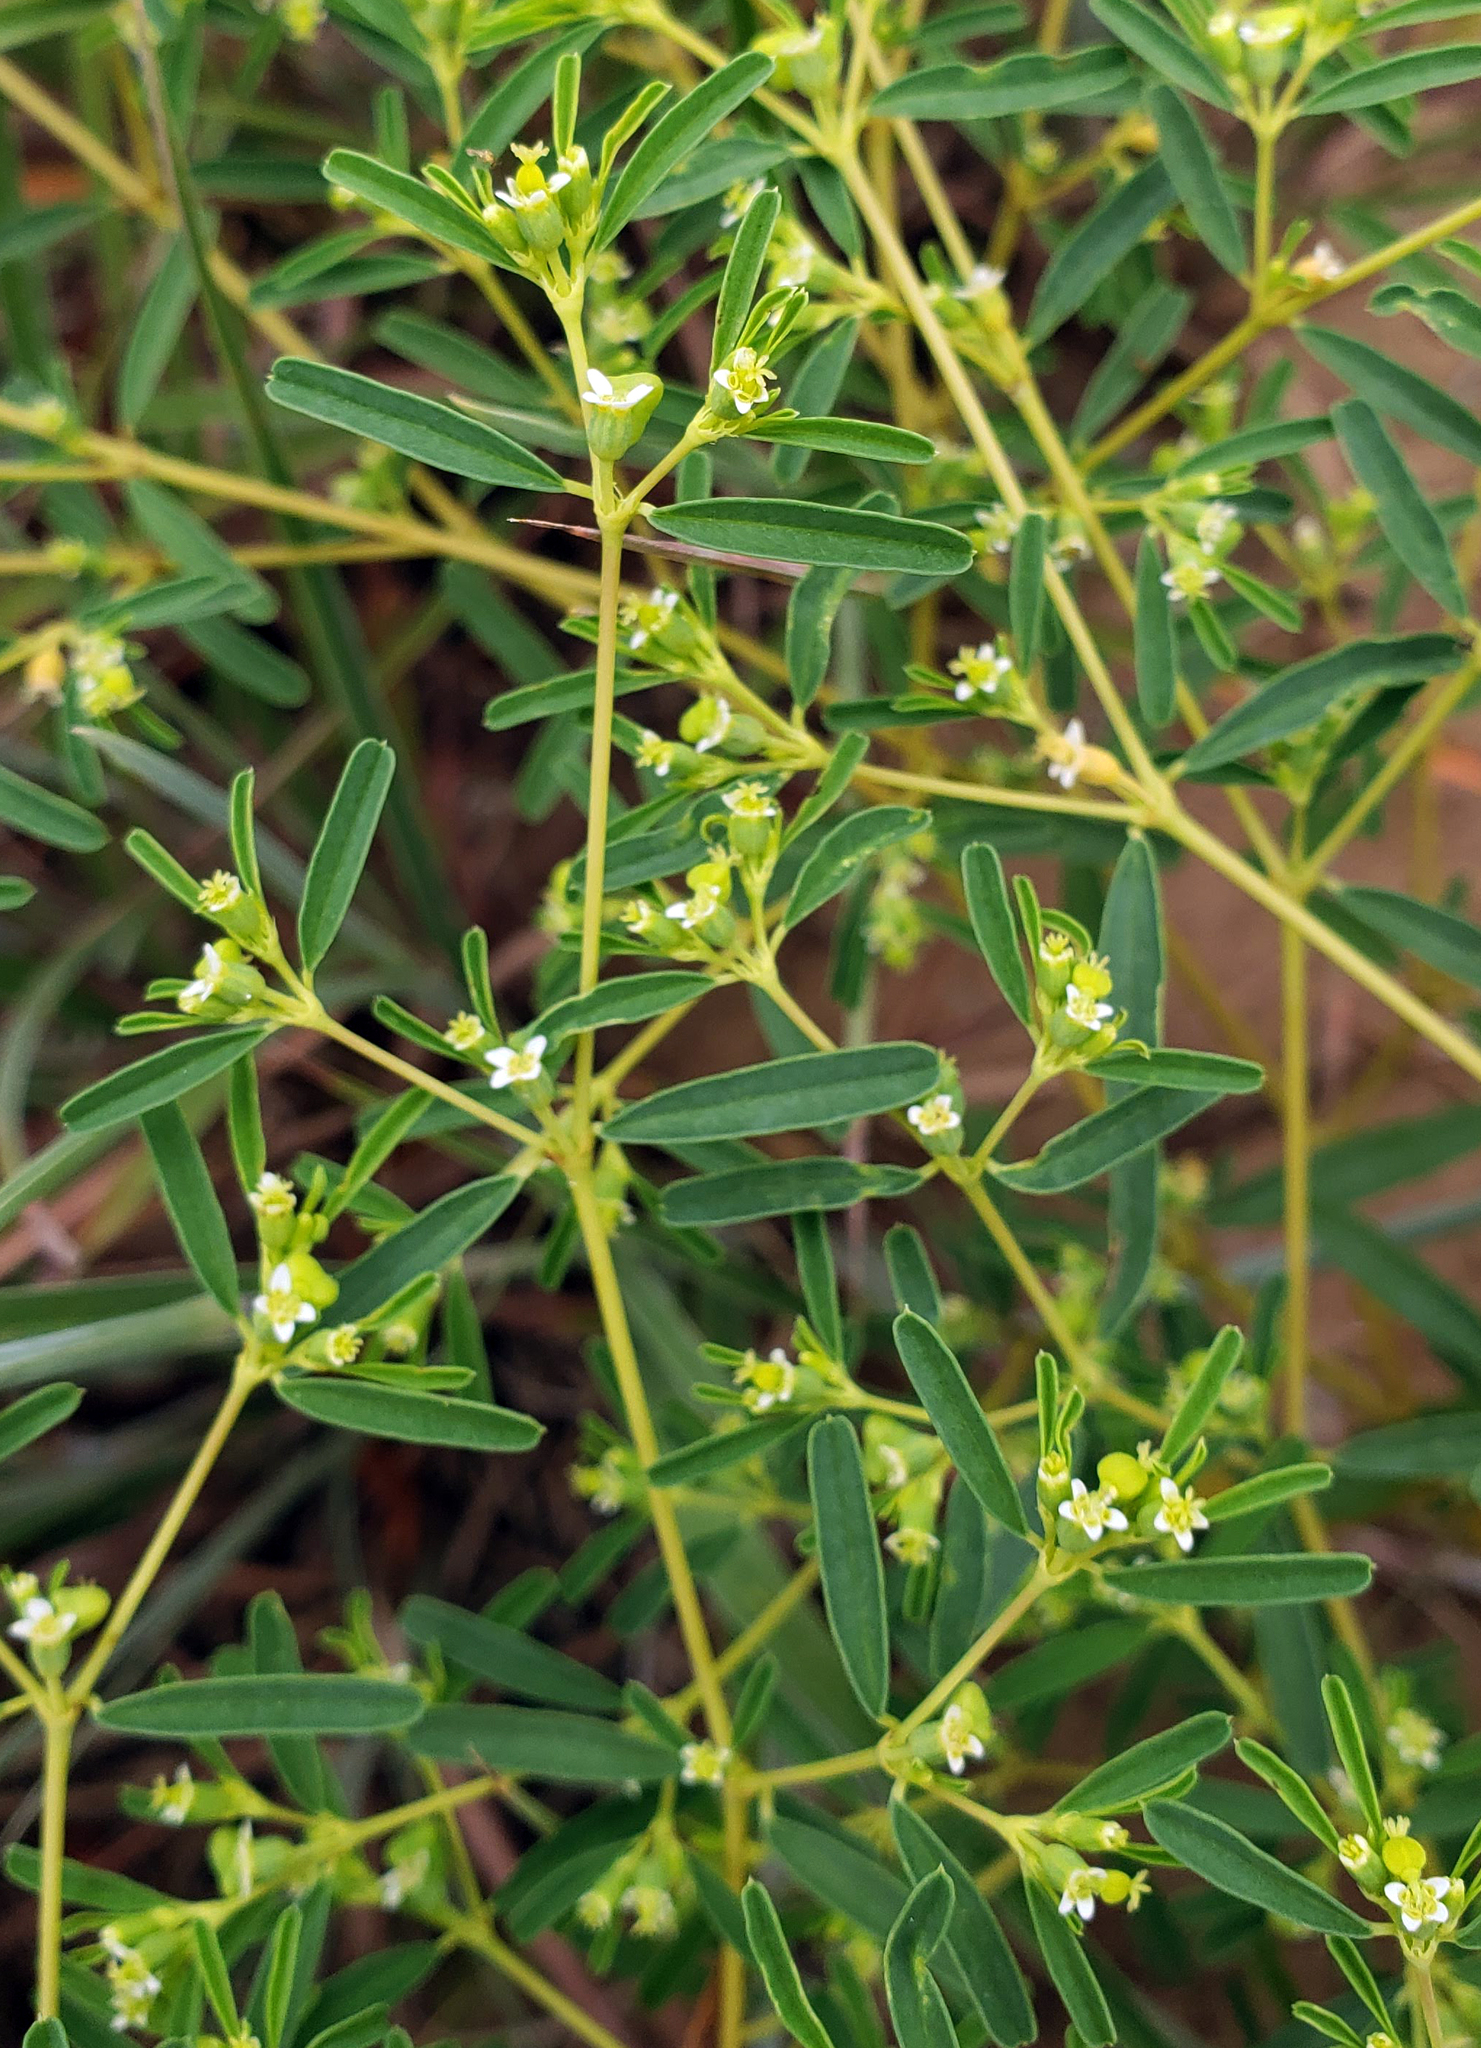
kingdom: Plantae
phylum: Tracheophyta
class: Magnoliopsida
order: Malpighiales
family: Euphorbiaceae
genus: Euphorbia
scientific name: Euphorbia missurica
